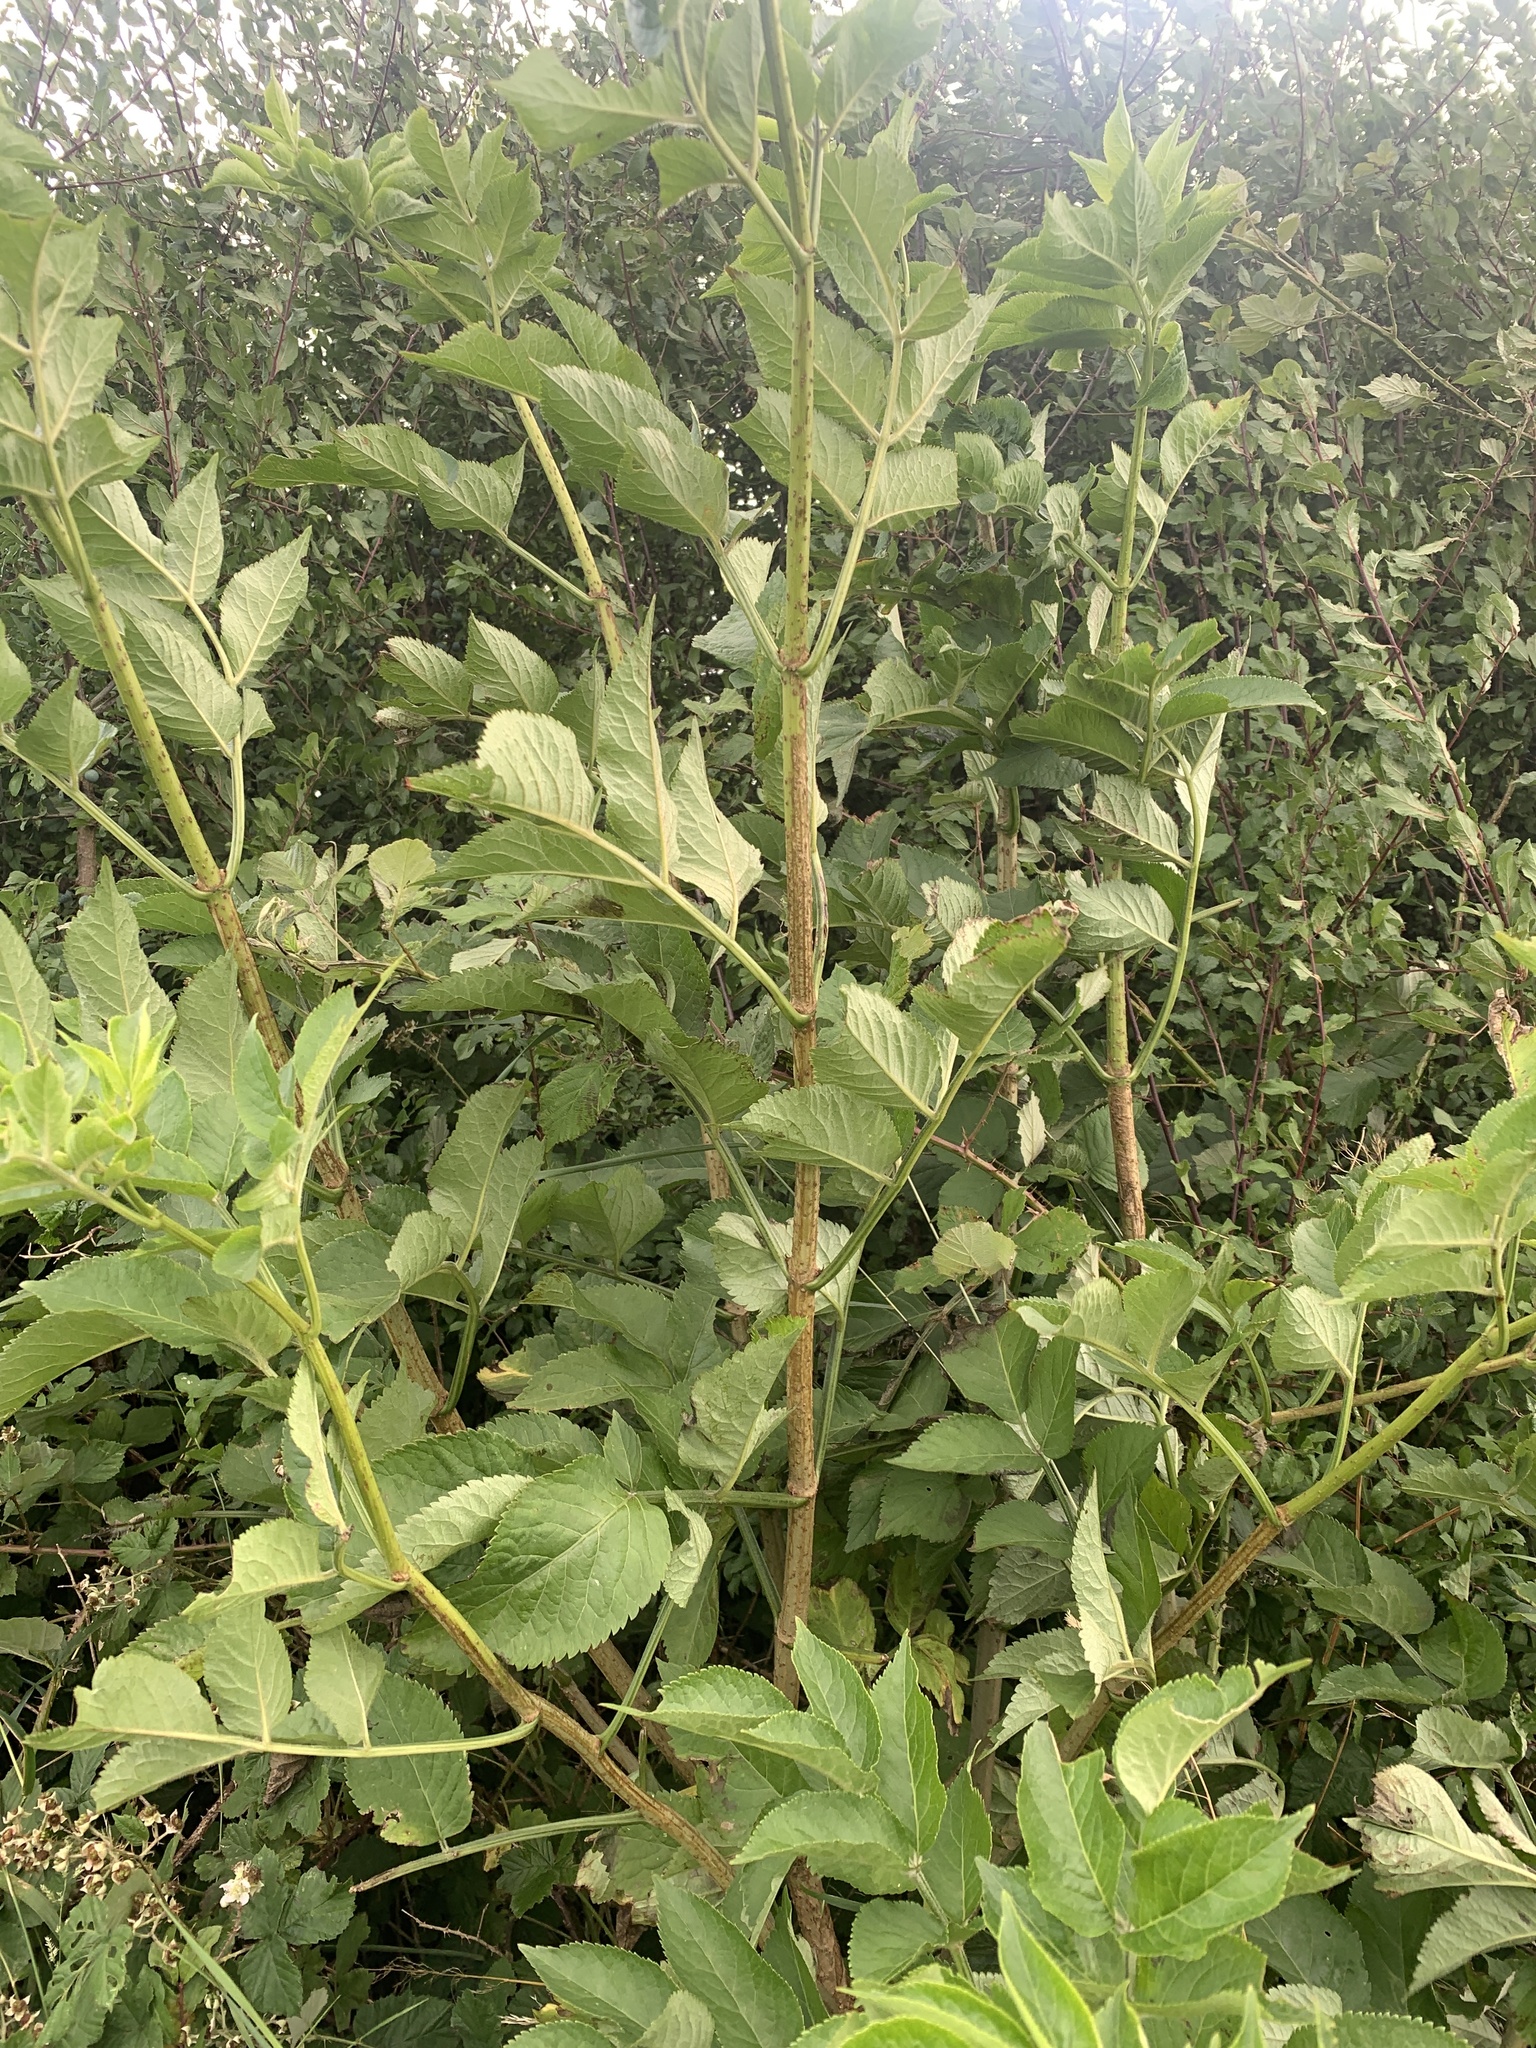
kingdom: Plantae
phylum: Tracheophyta
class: Magnoliopsida
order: Dipsacales
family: Viburnaceae
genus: Sambucus
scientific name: Sambucus nigra
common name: Elder
